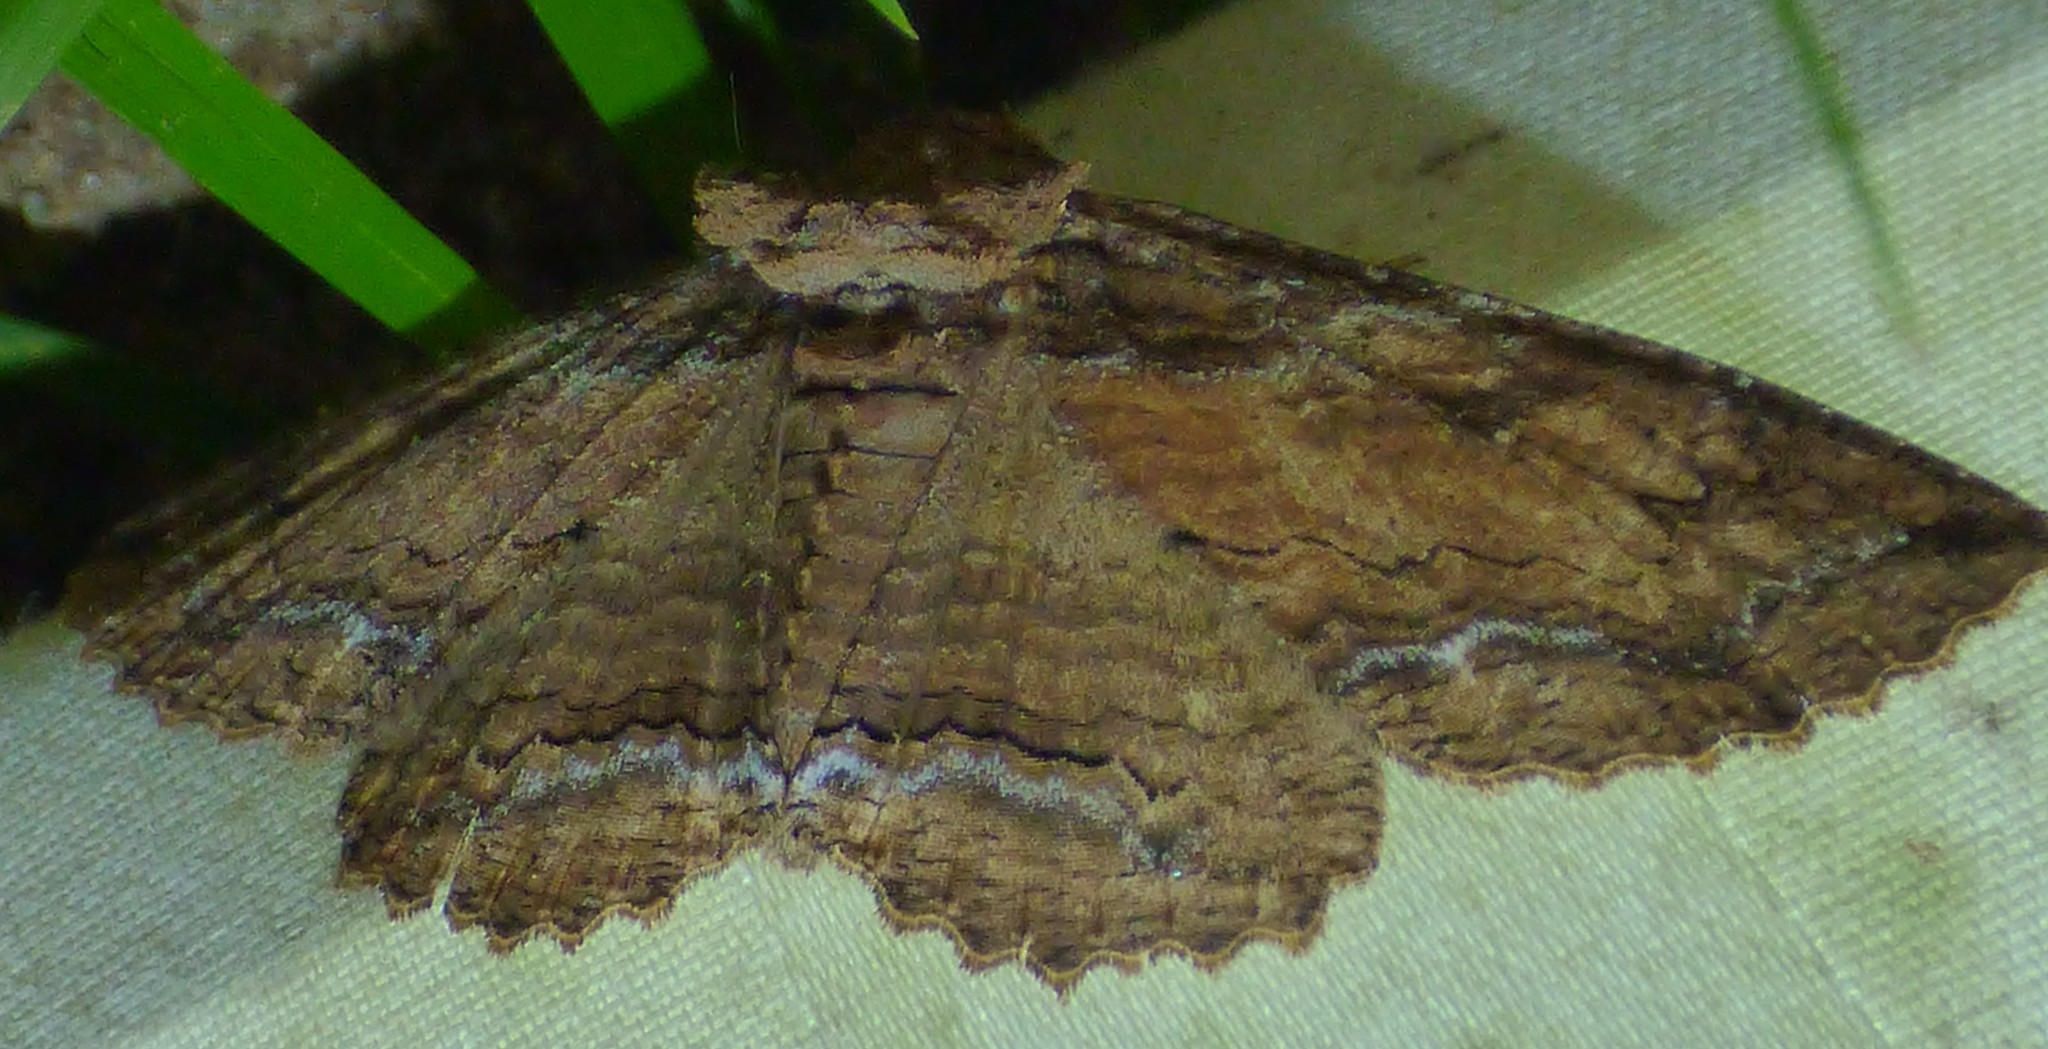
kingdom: Animalia
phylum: Arthropoda
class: Insecta
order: Lepidoptera
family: Erebidae
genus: Zale
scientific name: Zale lunata
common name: Lunate zale moth
